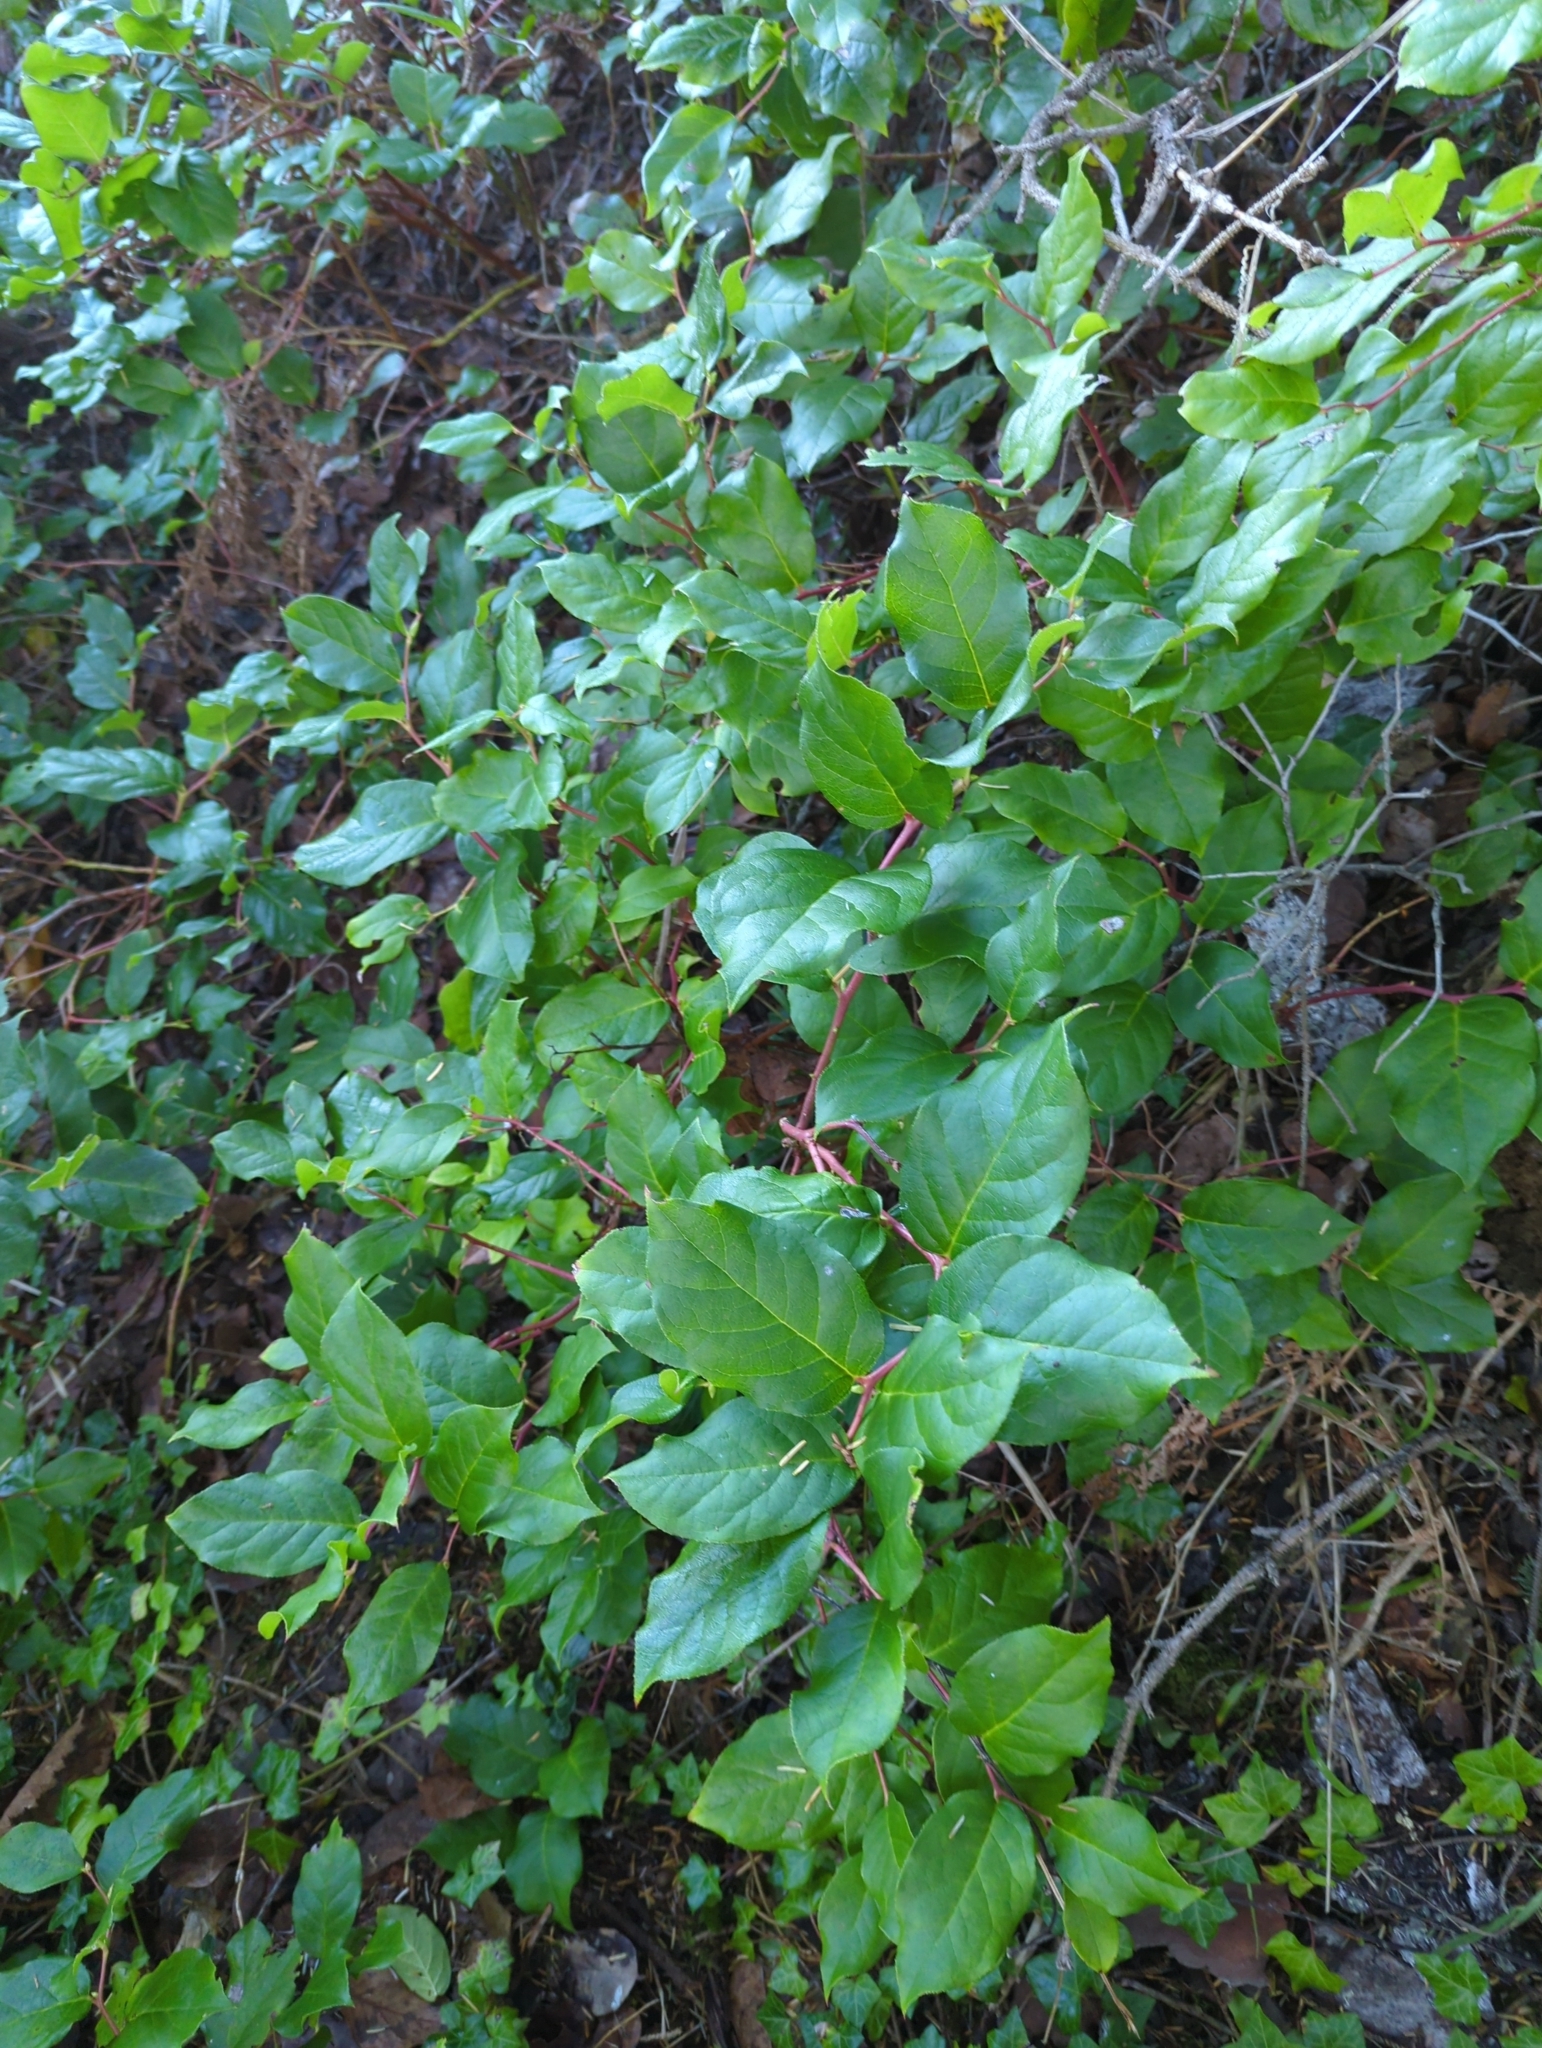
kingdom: Plantae
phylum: Tracheophyta
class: Magnoliopsida
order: Ericales
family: Ericaceae
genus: Gaultheria
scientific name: Gaultheria shallon
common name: Shallon
